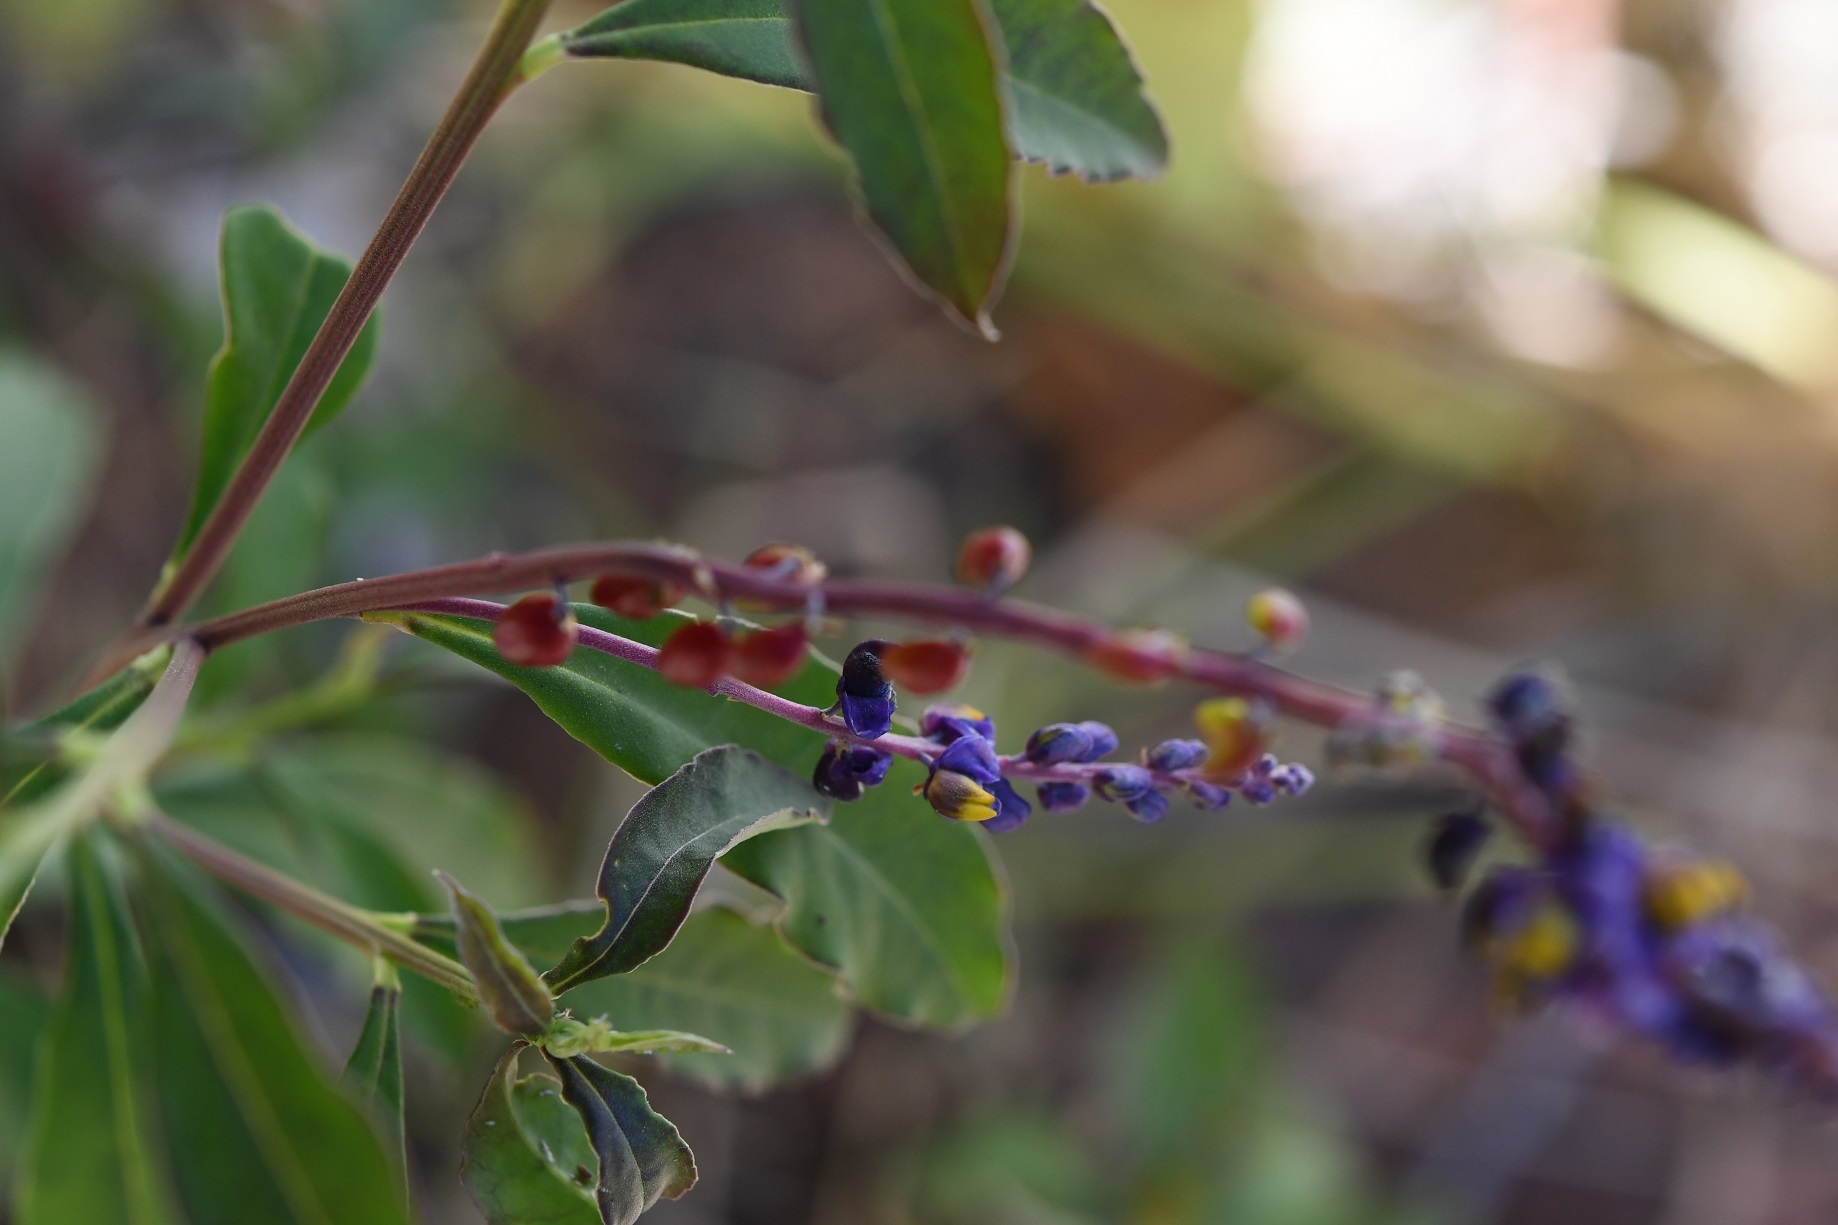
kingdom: Plantae
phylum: Tracheophyta
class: Magnoliopsida
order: Fabales
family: Polygalaceae
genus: Monnina
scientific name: Monnina xalapensis
